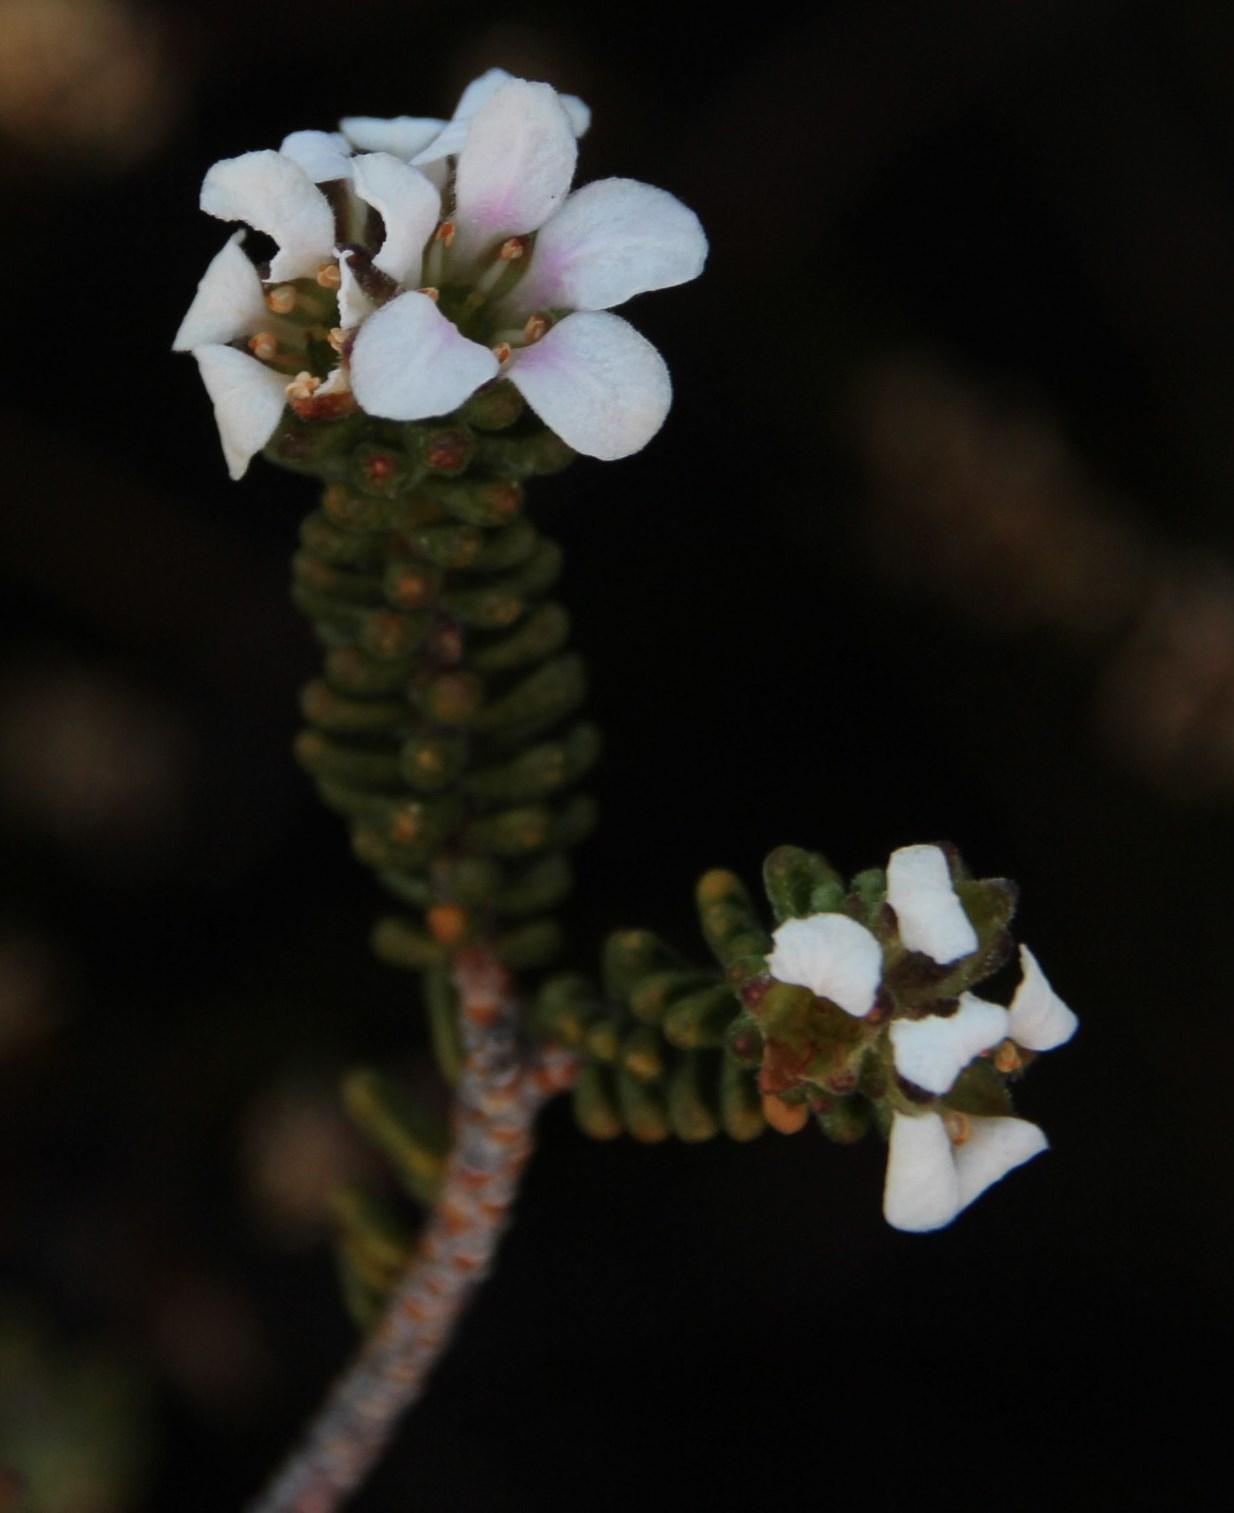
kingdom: Plantae
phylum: Tracheophyta
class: Magnoliopsida
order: Sapindales
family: Rutaceae
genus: Acmadenia
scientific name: Acmadenia teretifolia
